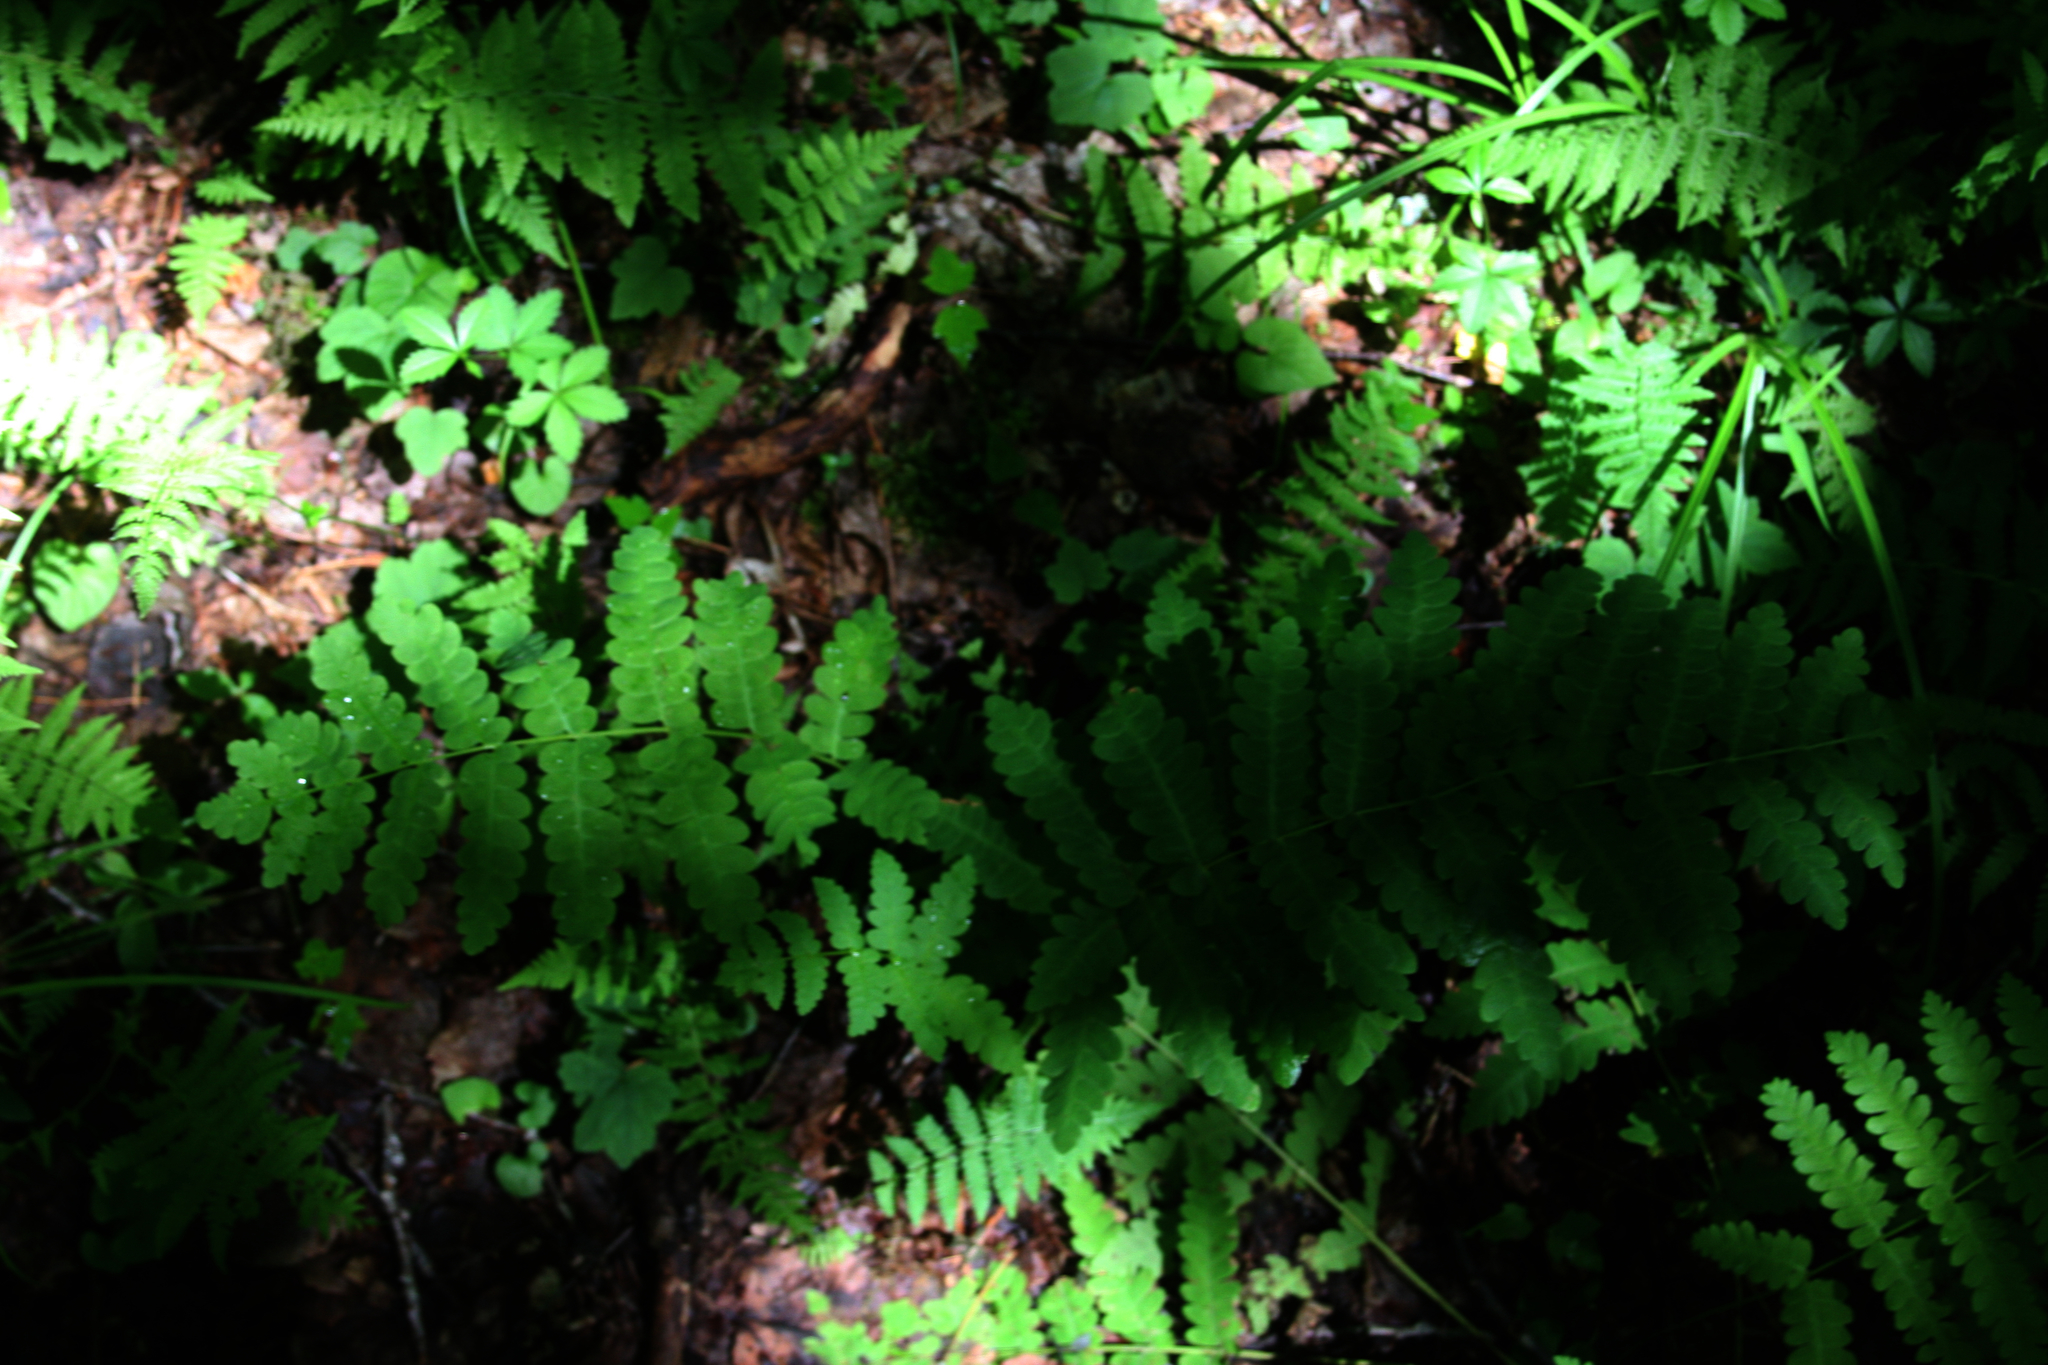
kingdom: Plantae
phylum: Tracheophyta
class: Polypodiopsida
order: Osmundales
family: Osmundaceae
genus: Claytosmunda
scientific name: Claytosmunda claytoniana
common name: Clayton's fern
